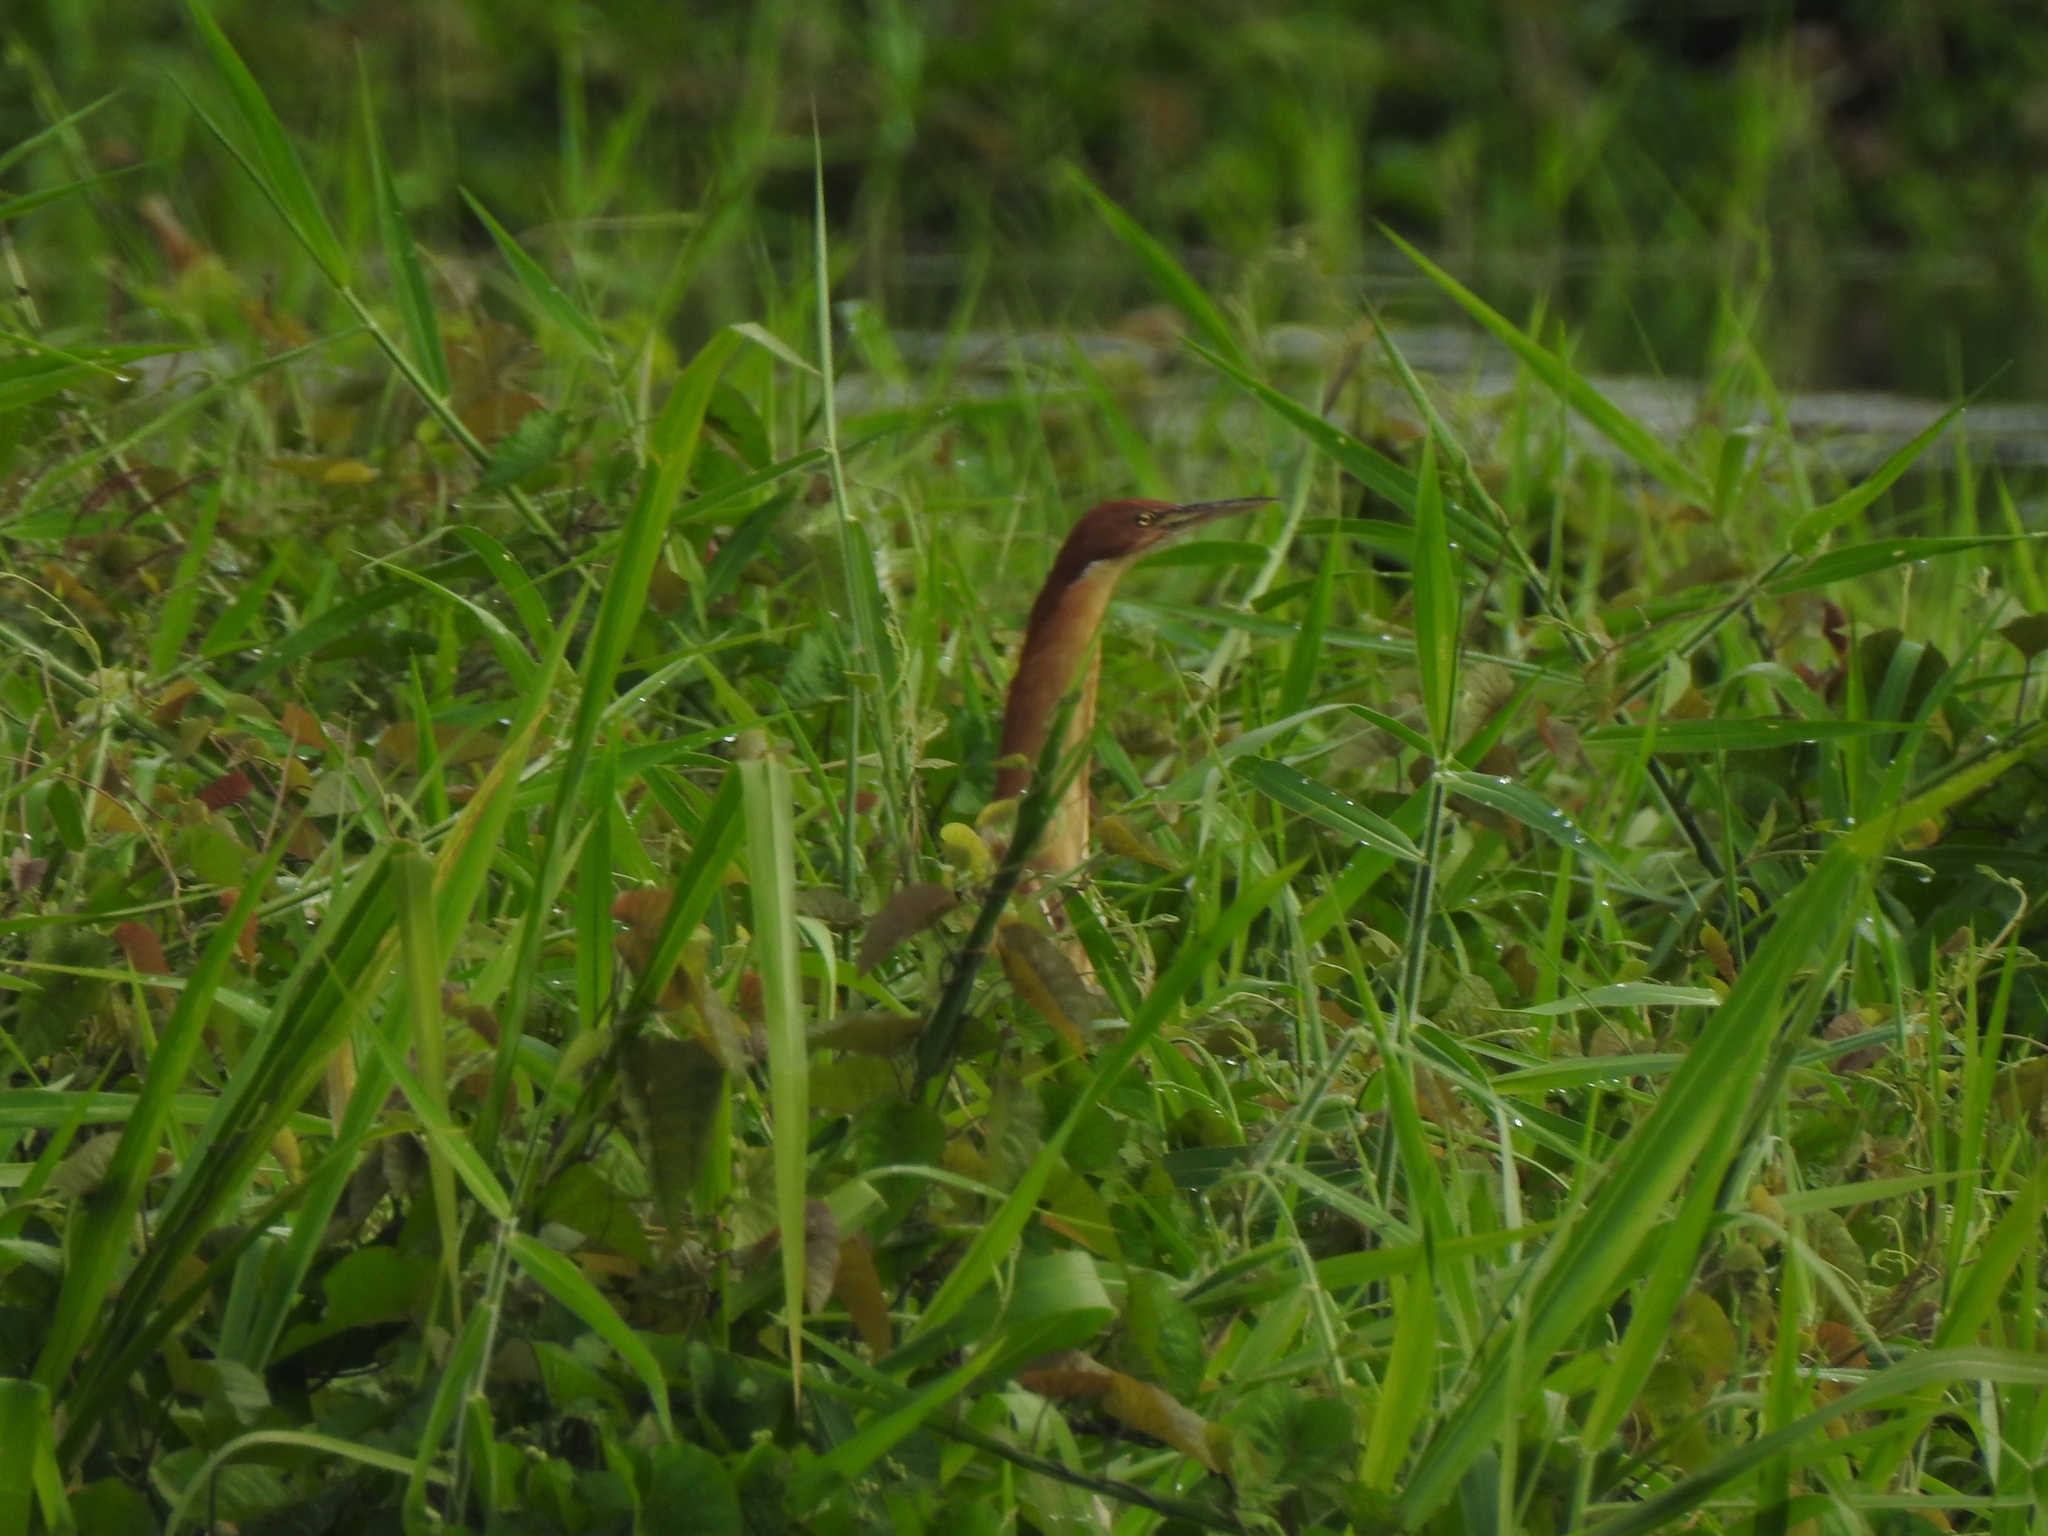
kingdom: Animalia
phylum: Chordata
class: Aves
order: Pelecaniformes
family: Ardeidae
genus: Ixobrychus
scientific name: Ixobrychus cinnamomeus
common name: Cinnamon bittern
